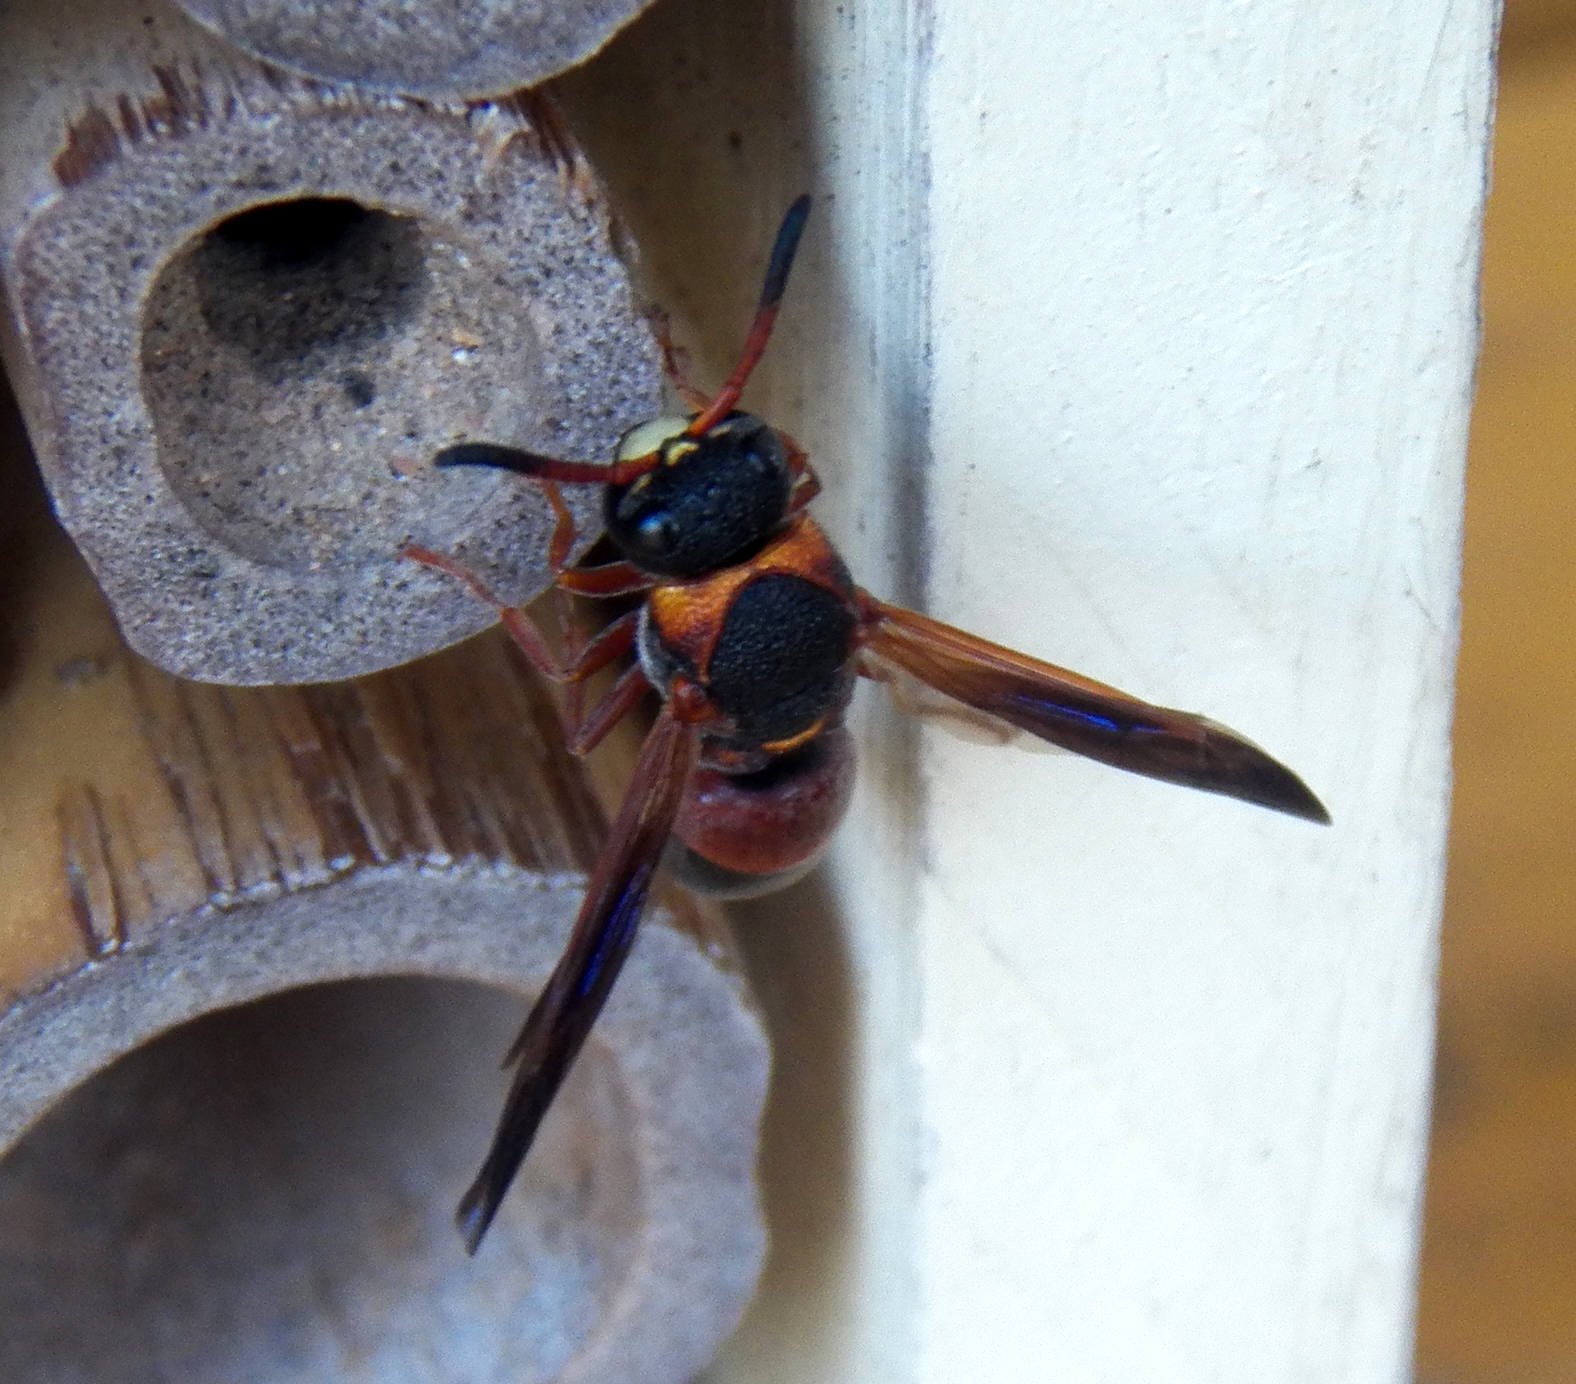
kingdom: Animalia
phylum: Arthropoda
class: Insecta
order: Hymenoptera
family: Eumenidae
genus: Pachodynerus
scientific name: Pachodynerus erynnis
